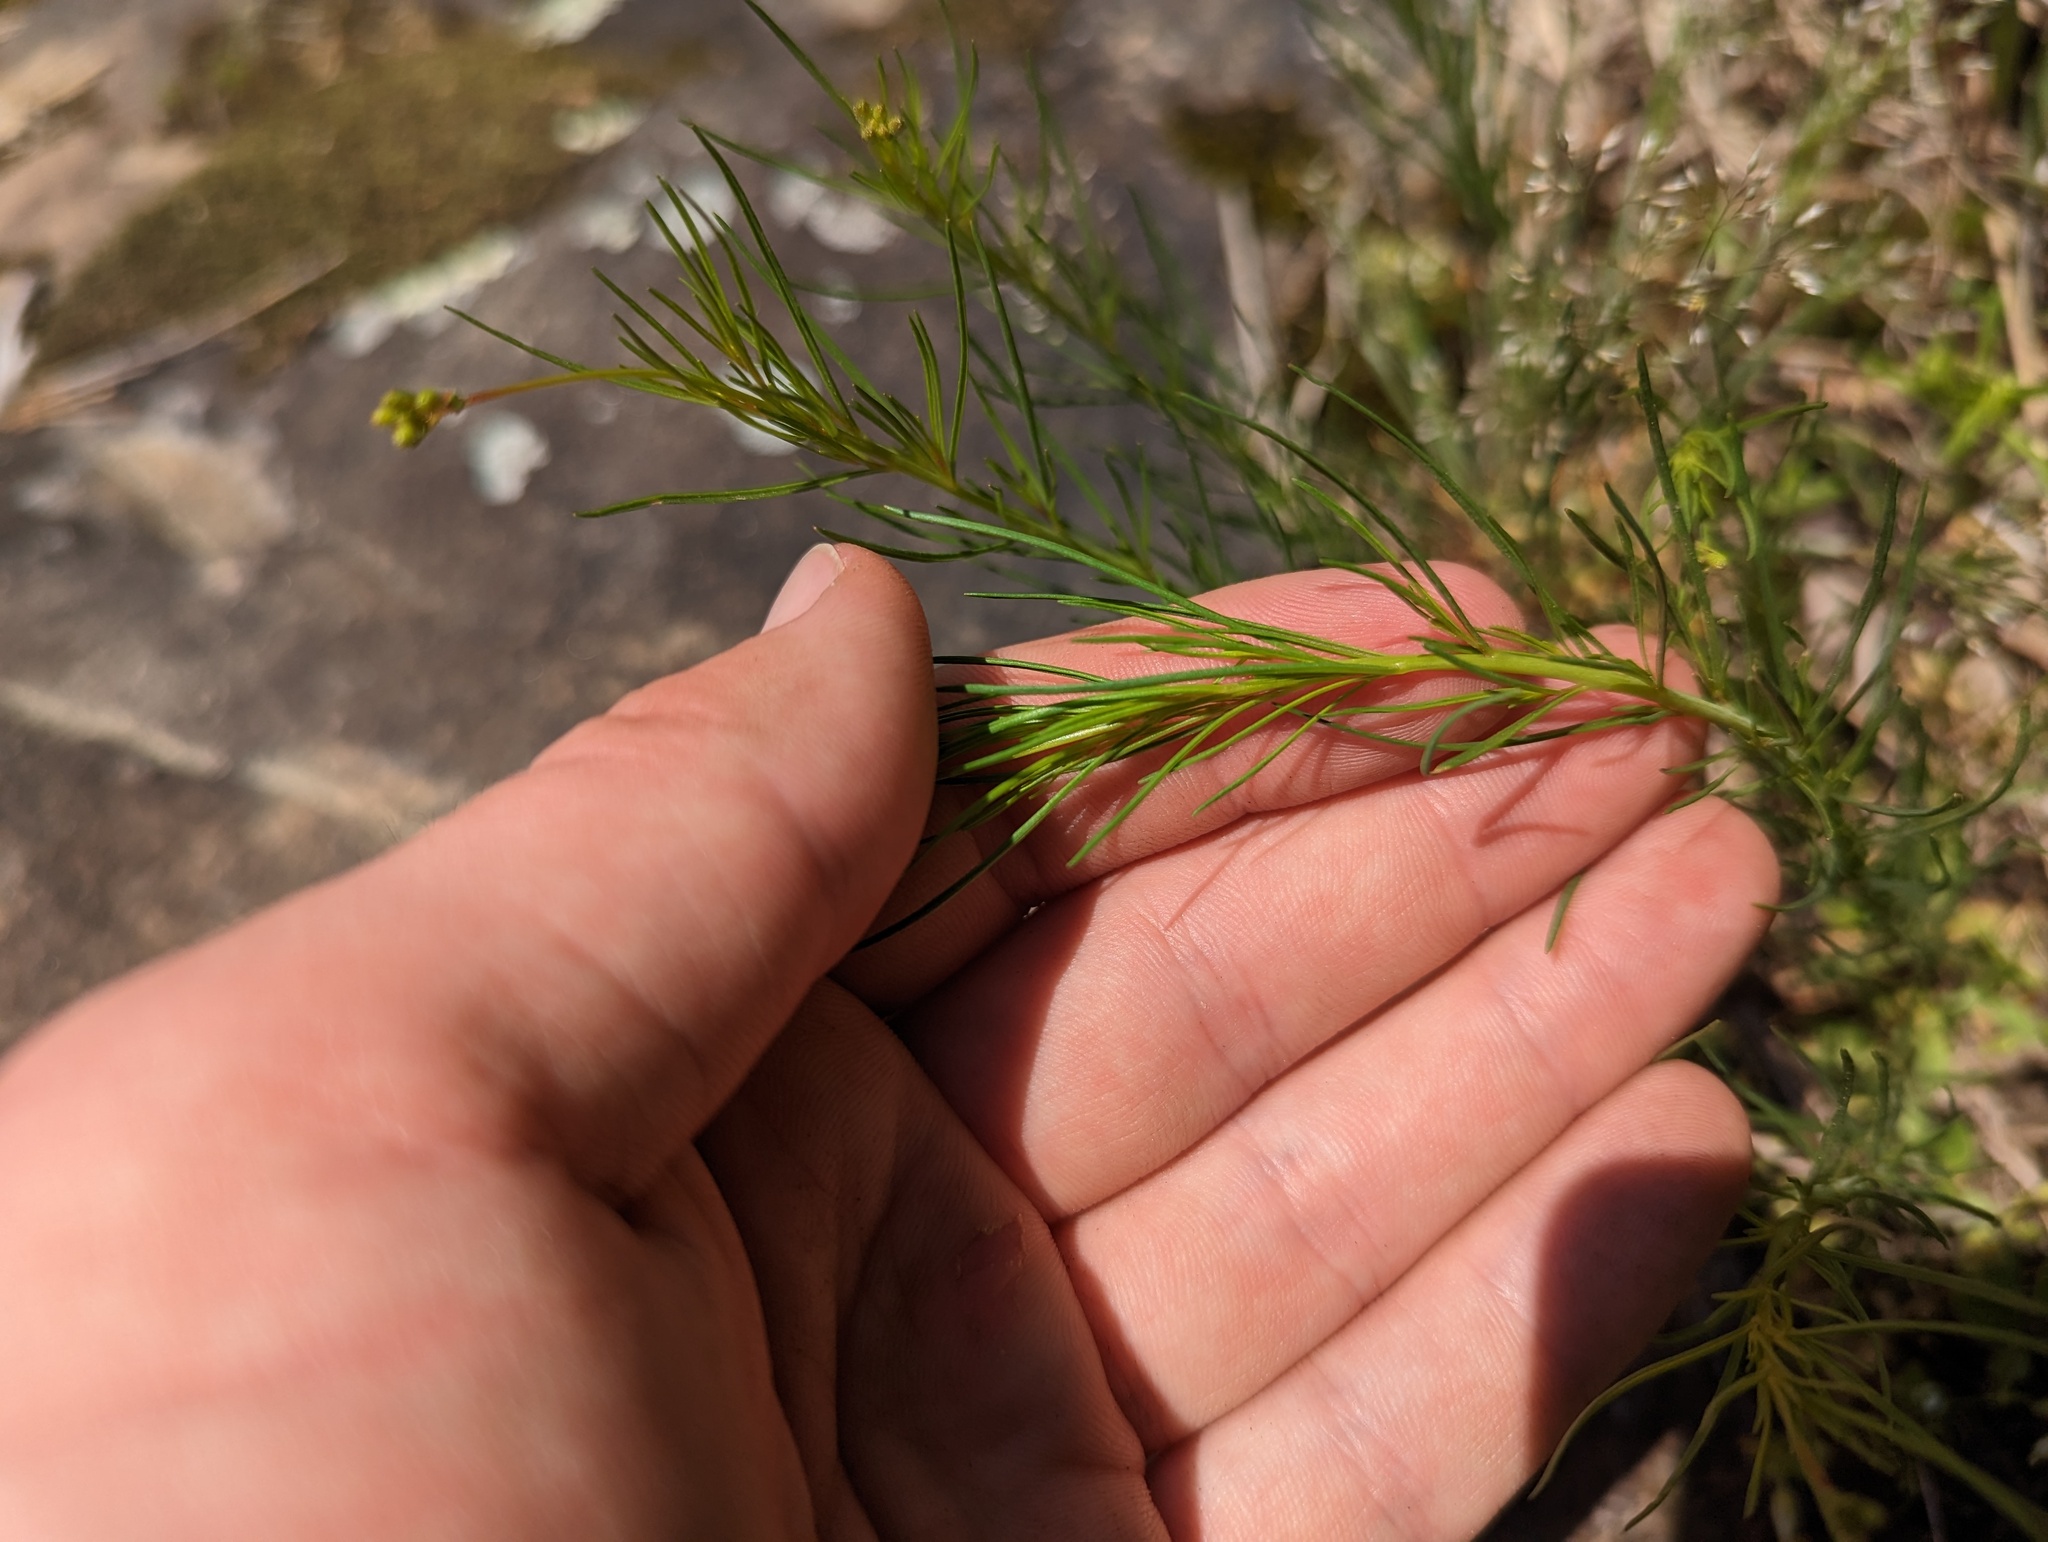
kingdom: Plantae
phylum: Tracheophyta
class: Magnoliopsida
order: Myrtales
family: Onagraceae
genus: Oenothera
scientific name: Oenothera linifolia
